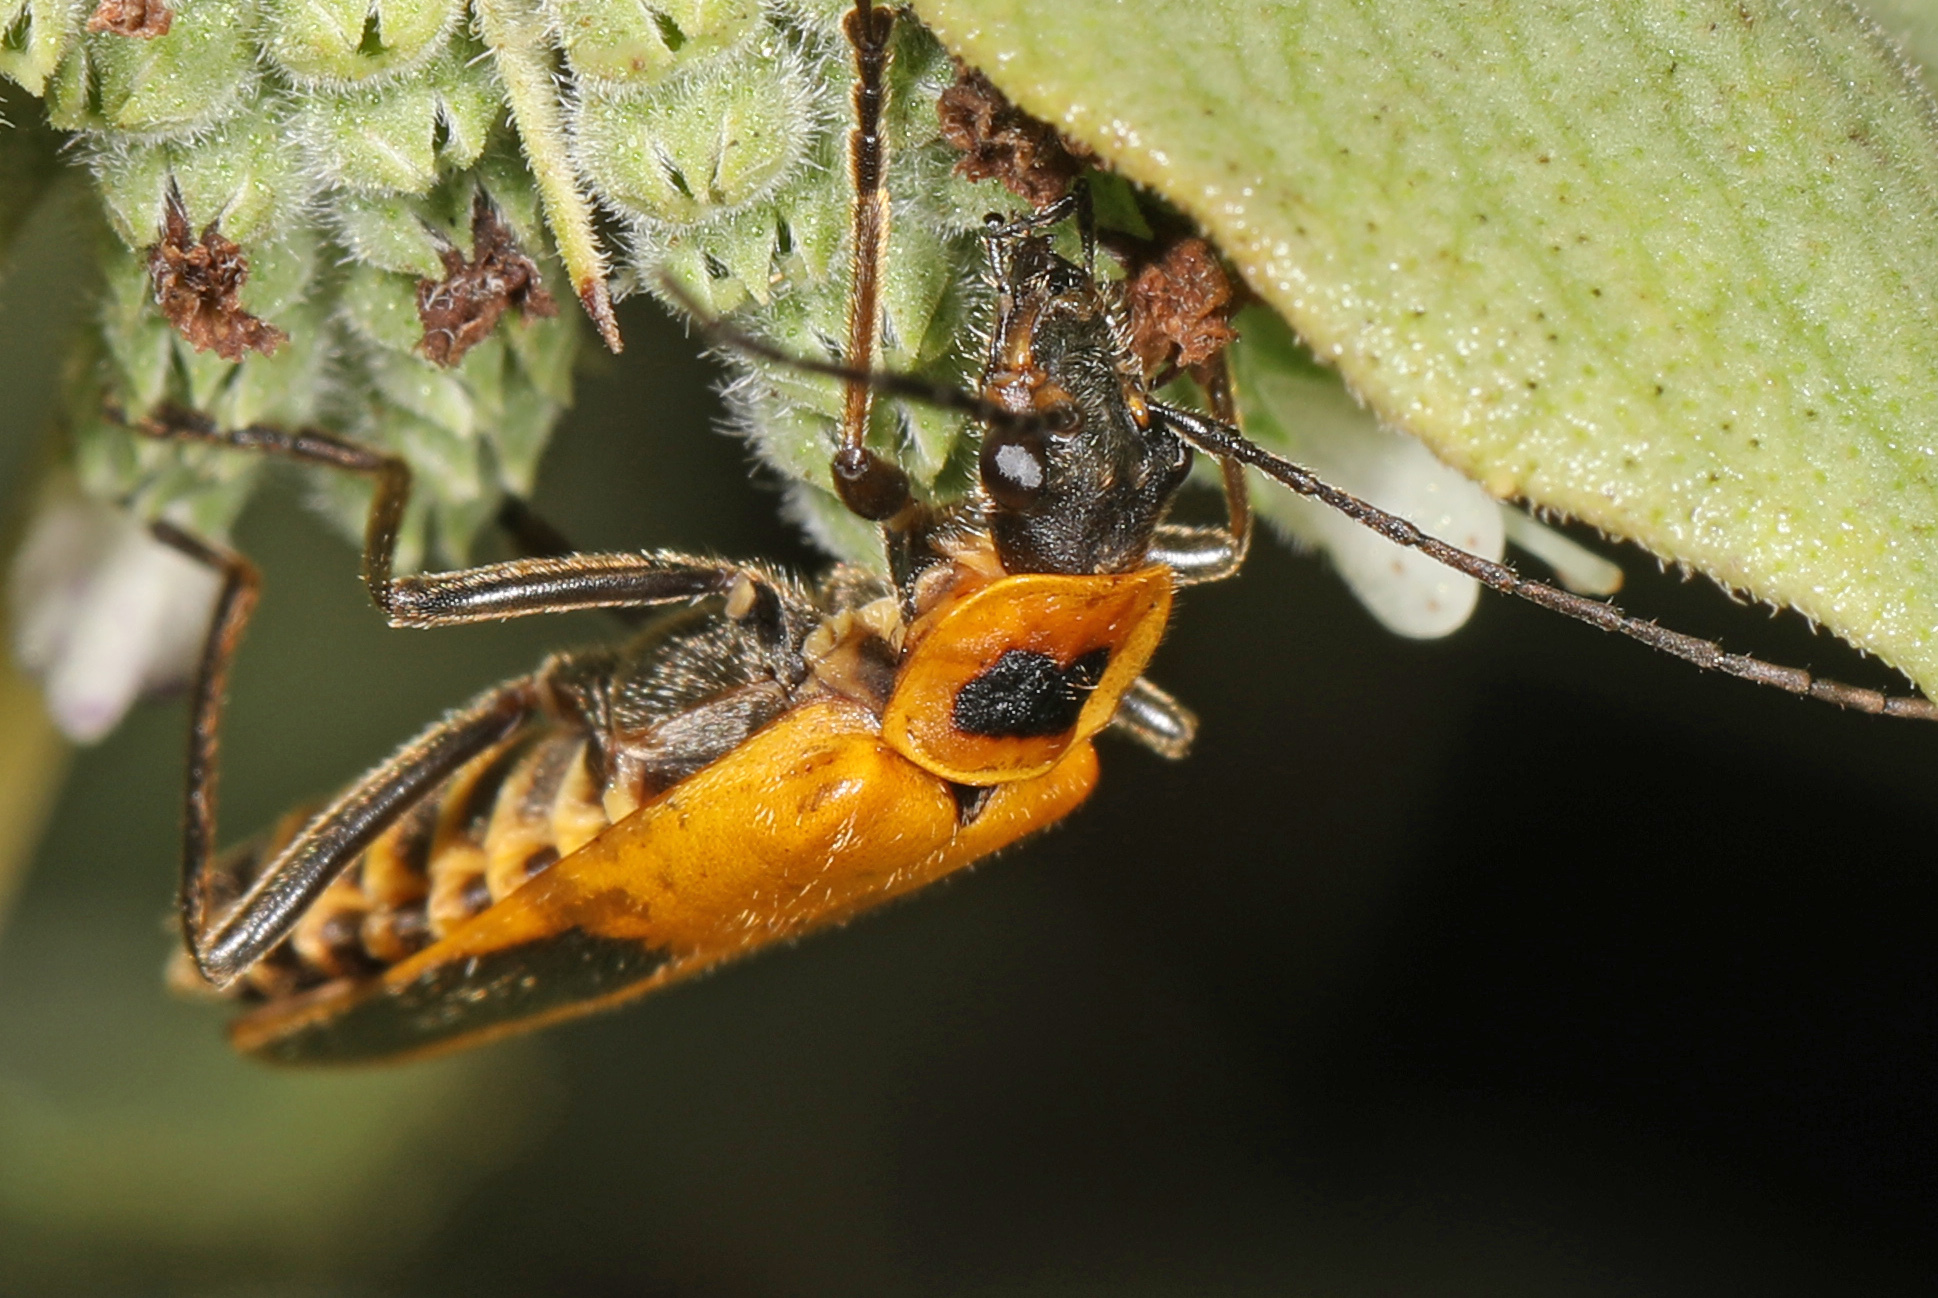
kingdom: Animalia
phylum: Arthropoda
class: Insecta
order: Coleoptera
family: Cantharidae
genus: Chauliognathus
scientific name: Chauliognathus pensylvanicus
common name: Goldenrod soldier beetle
